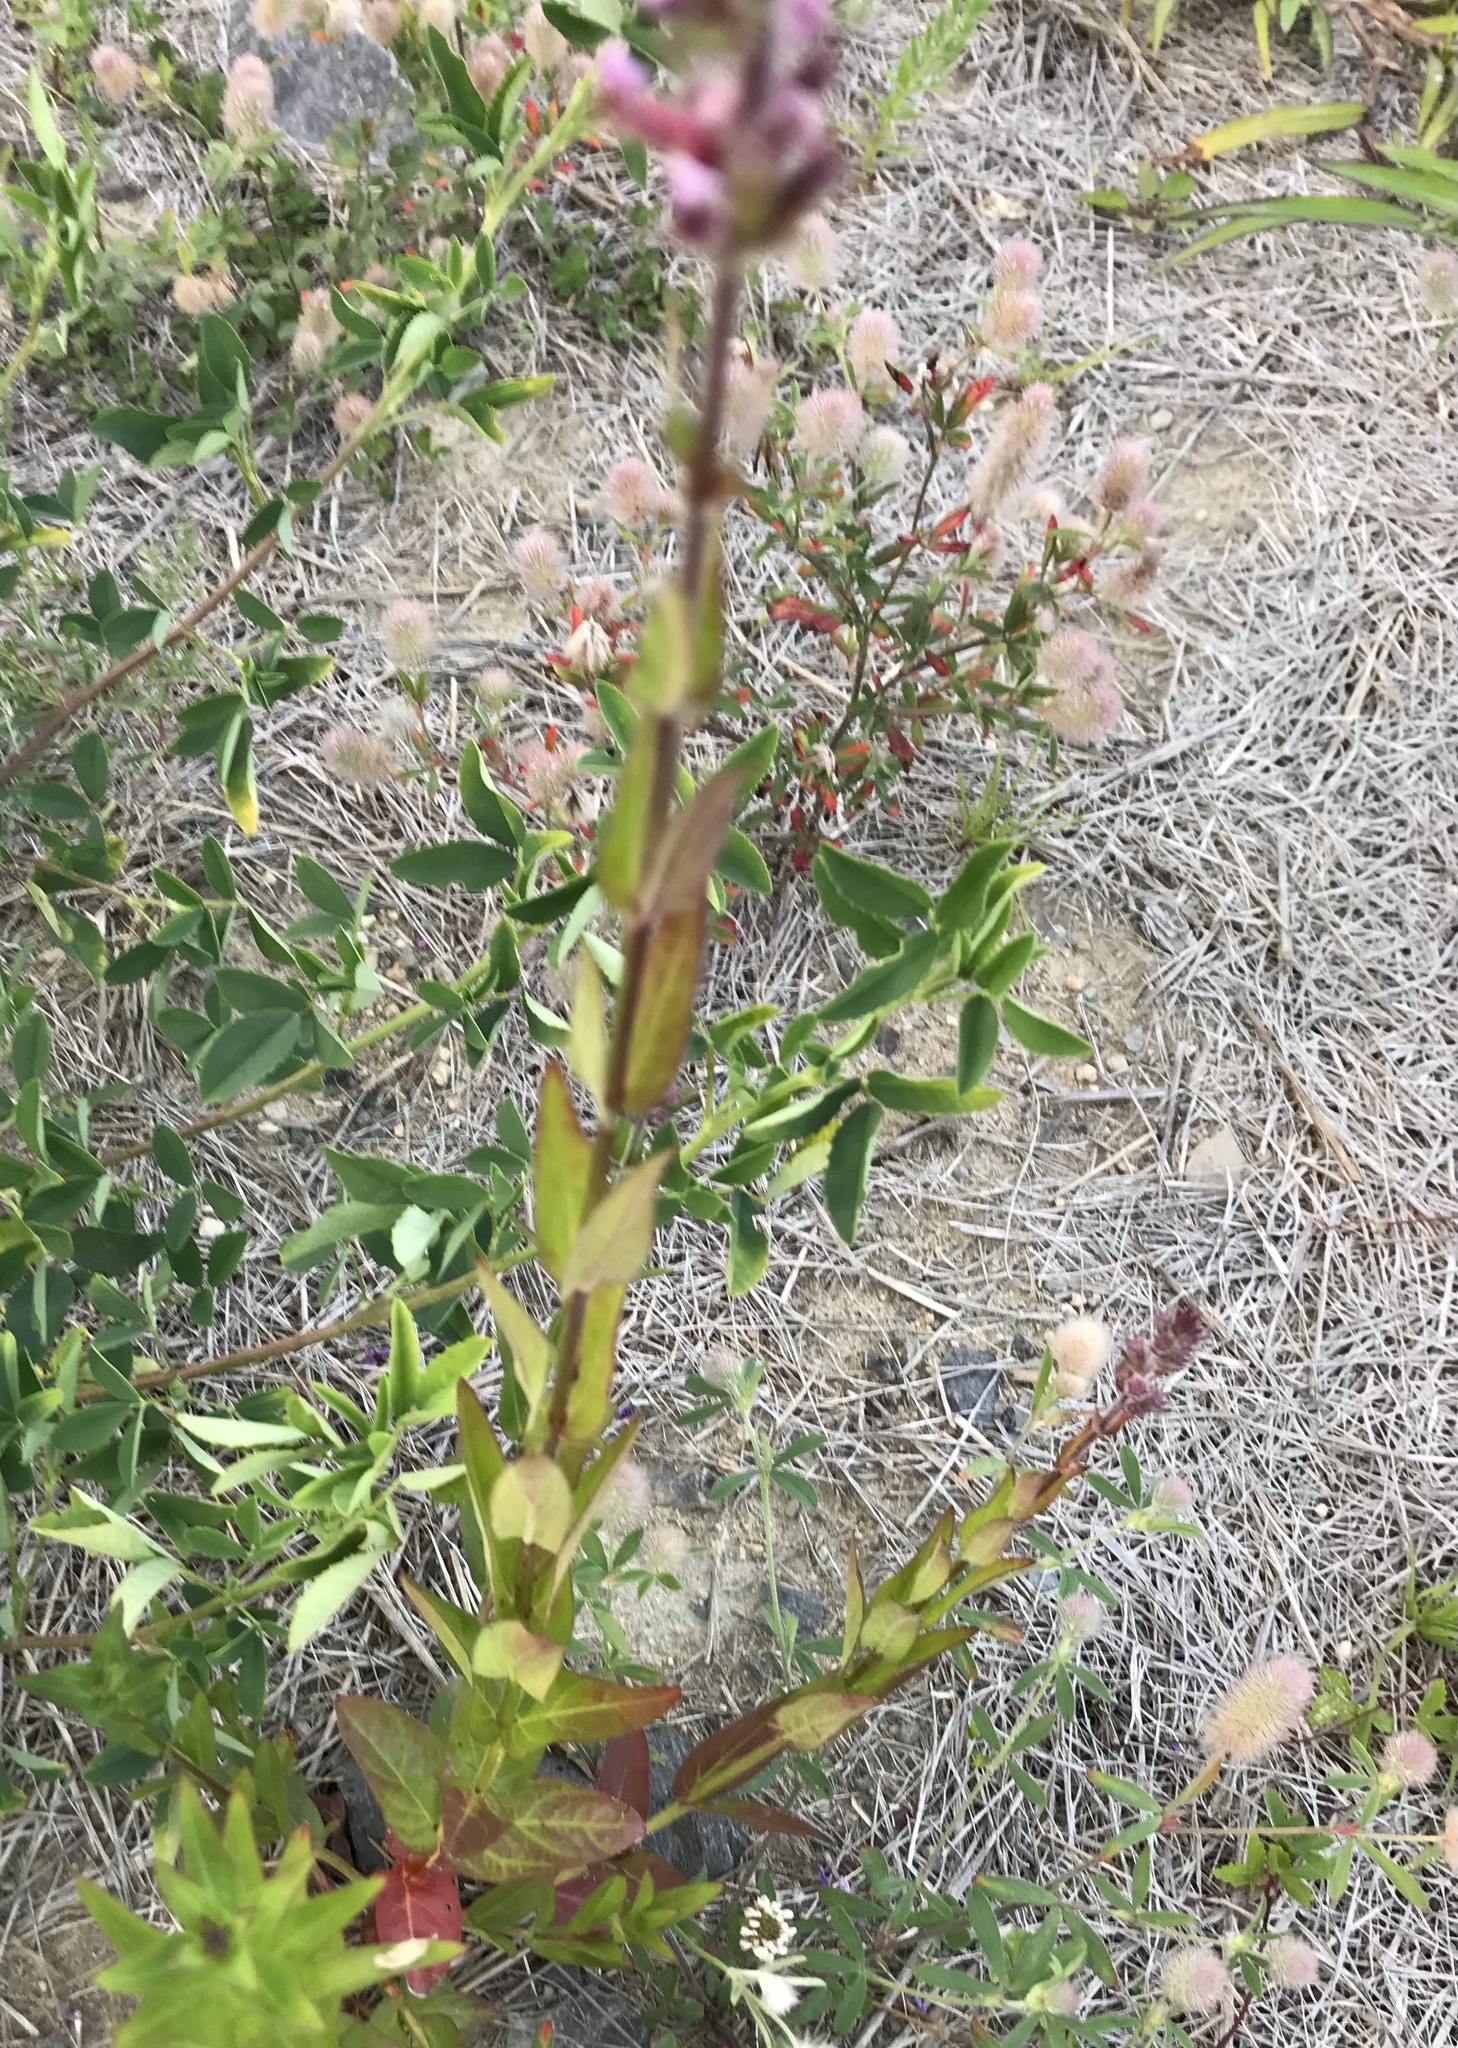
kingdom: Plantae
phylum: Tracheophyta
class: Magnoliopsida
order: Myrtales
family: Lythraceae
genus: Lythrum
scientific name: Lythrum salicaria
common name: Purple loosestrife
